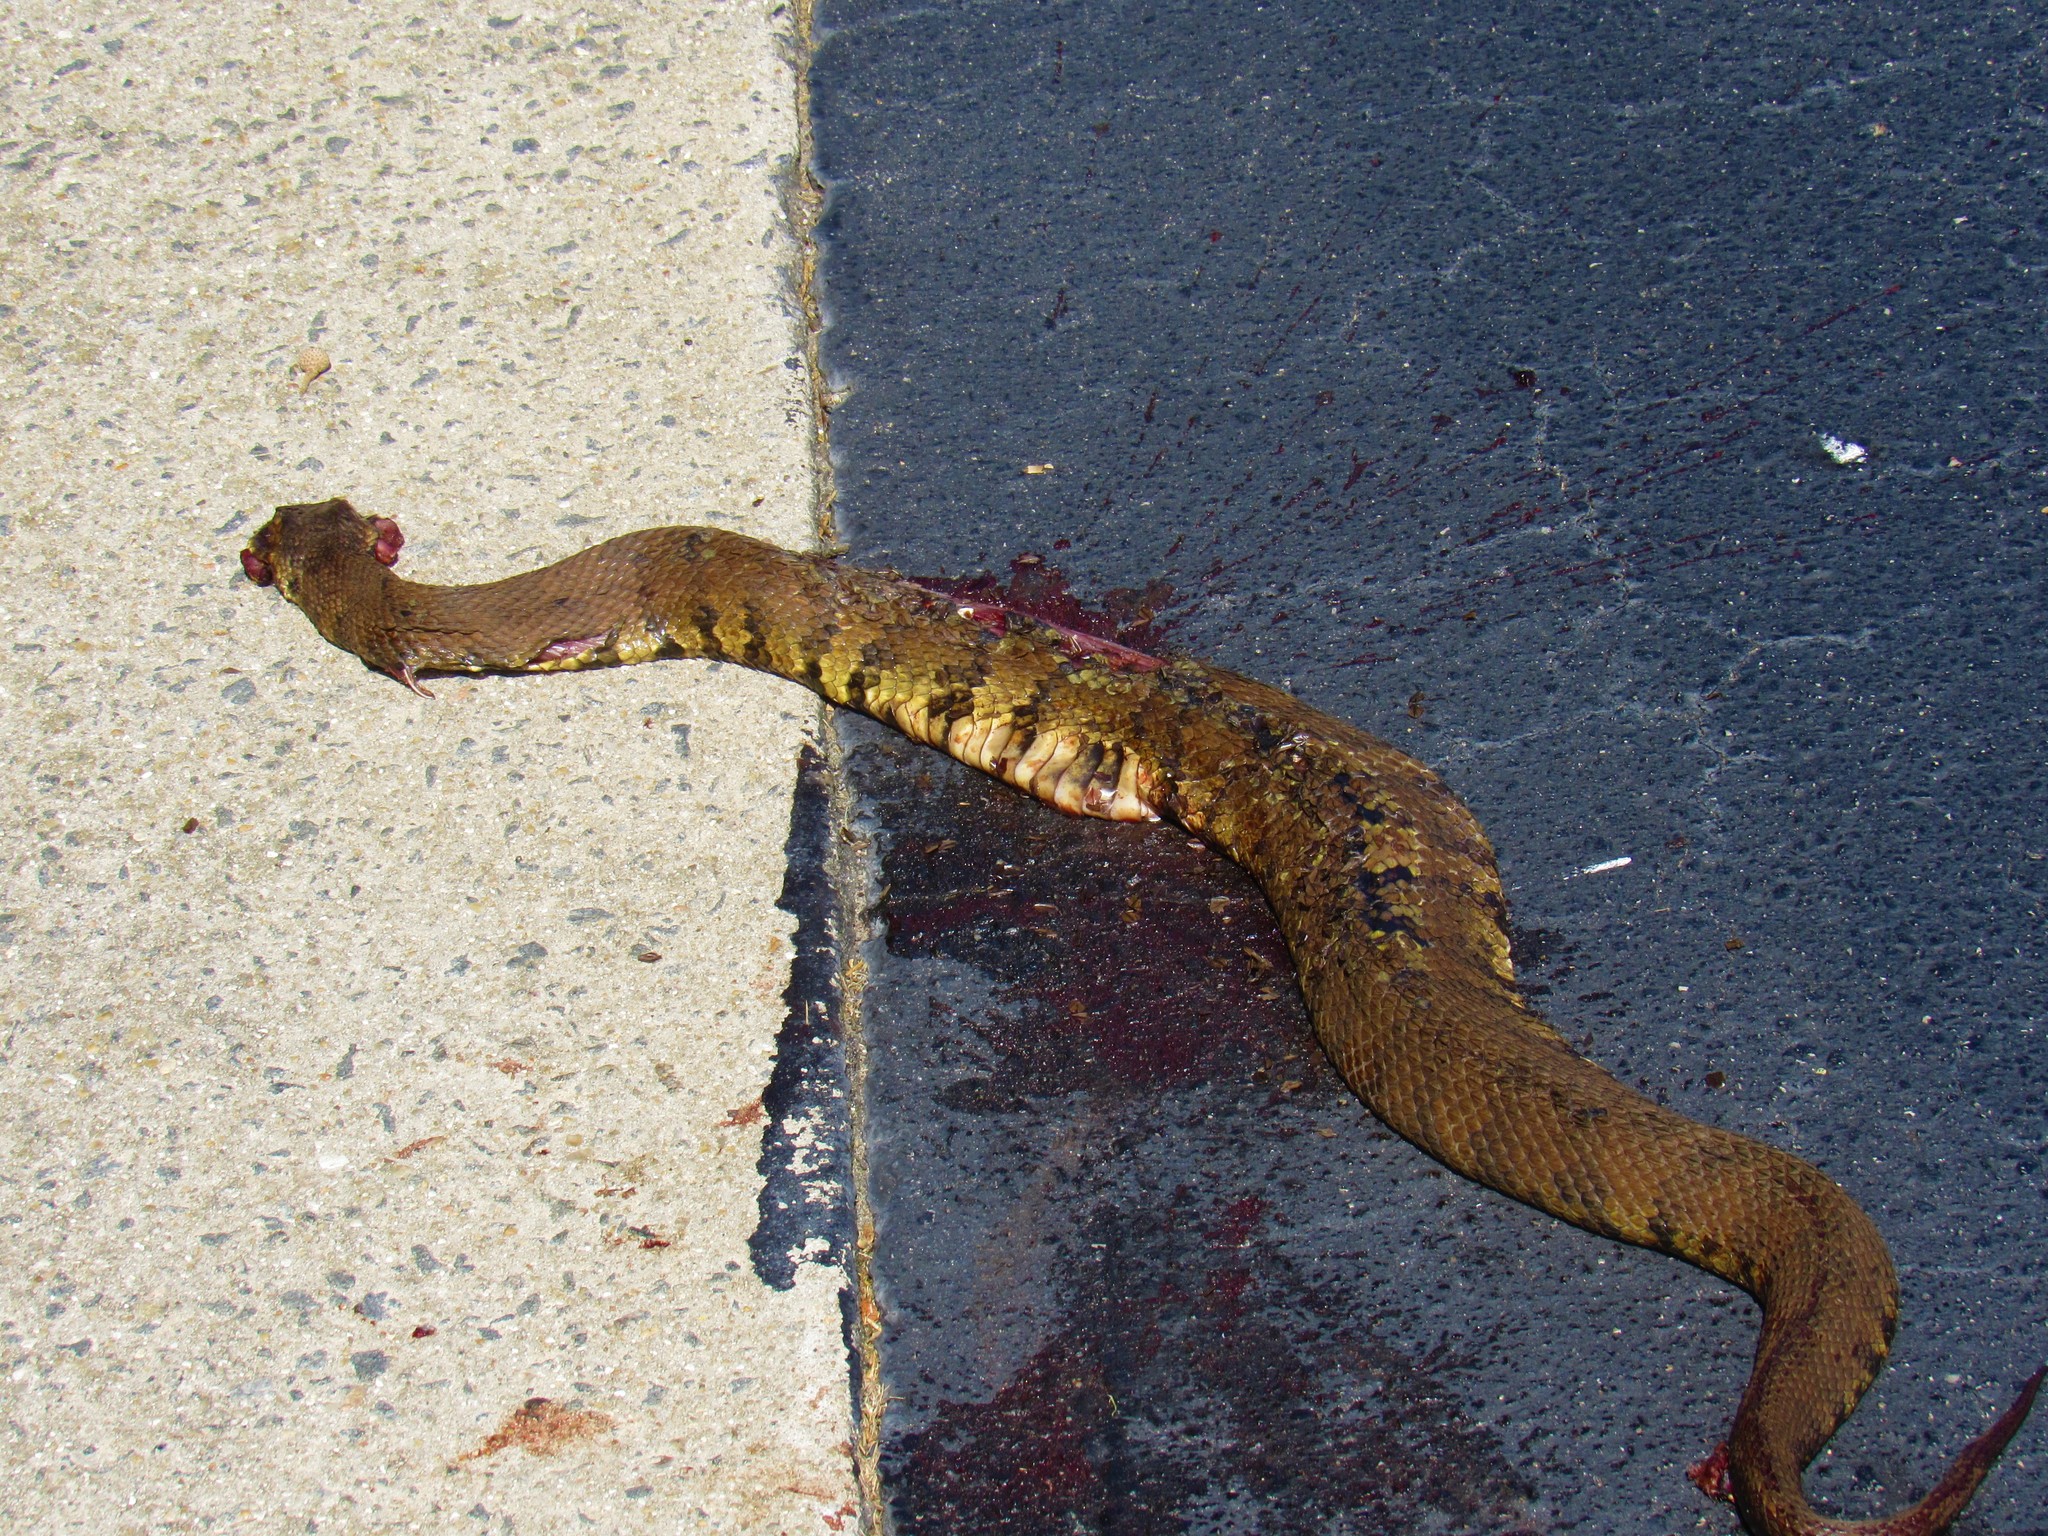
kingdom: Animalia
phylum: Chordata
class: Squamata
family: Viperidae
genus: Agkistrodon
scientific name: Agkistrodon piscivorus
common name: Cottonmouth
